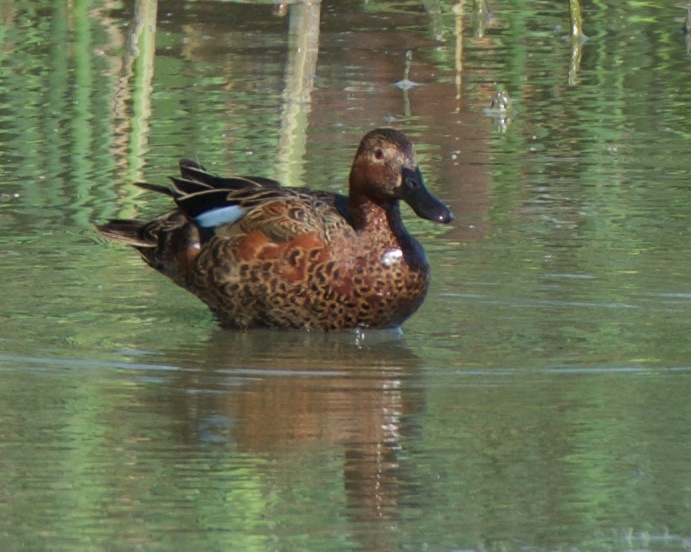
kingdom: Animalia
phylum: Chordata
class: Aves
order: Anseriformes
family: Anatidae
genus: Spatula
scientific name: Spatula cyanoptera
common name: Cinnamon teal
